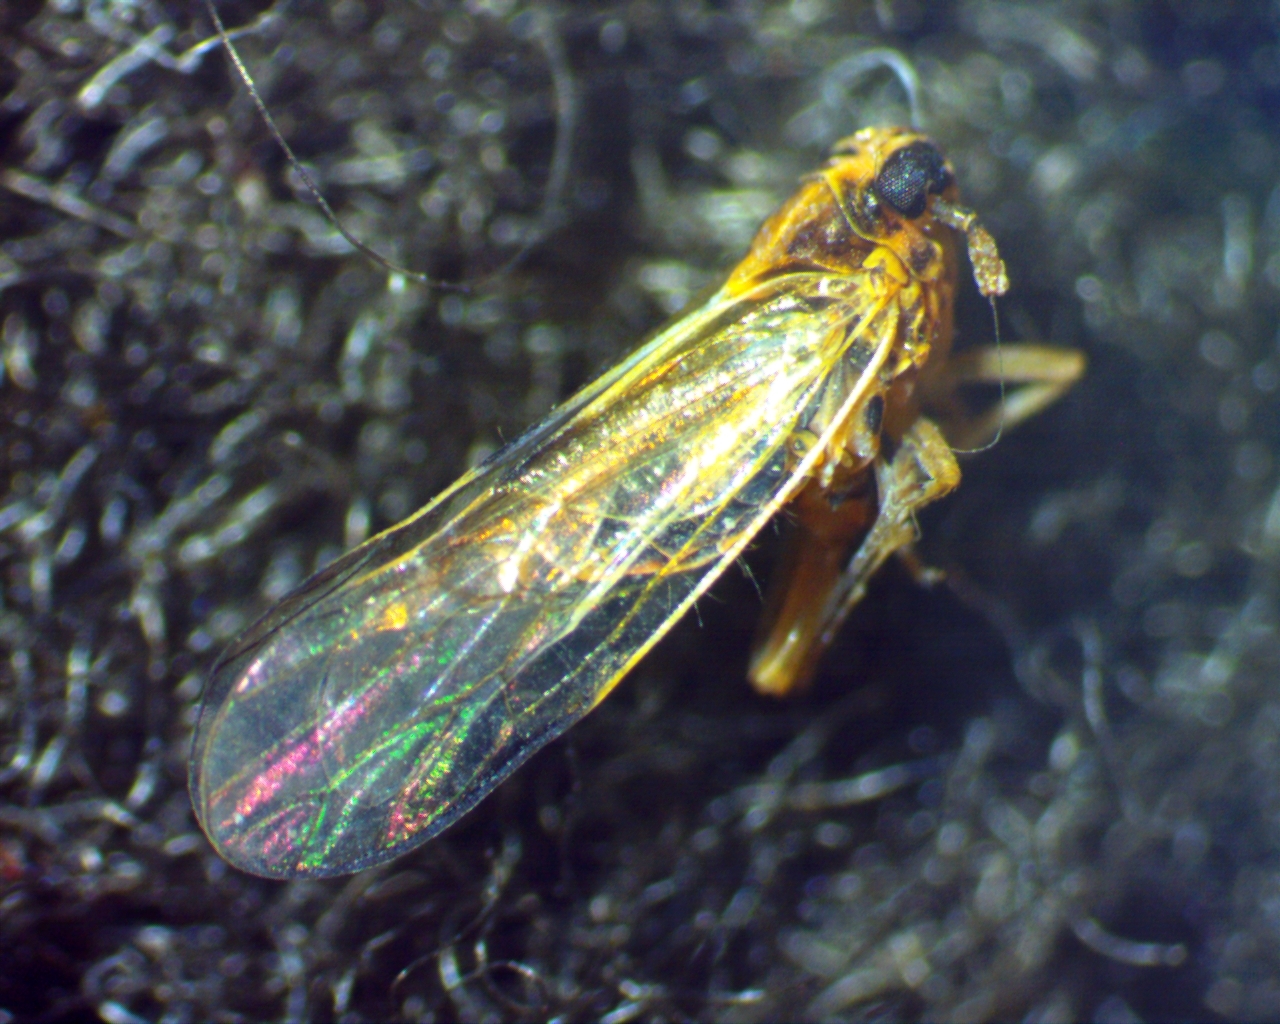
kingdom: Animalia
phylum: Arthropoda
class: Insecta
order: Hemiptera
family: Delphacidae
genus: Muellerianella
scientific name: Muellerianella laminalis
